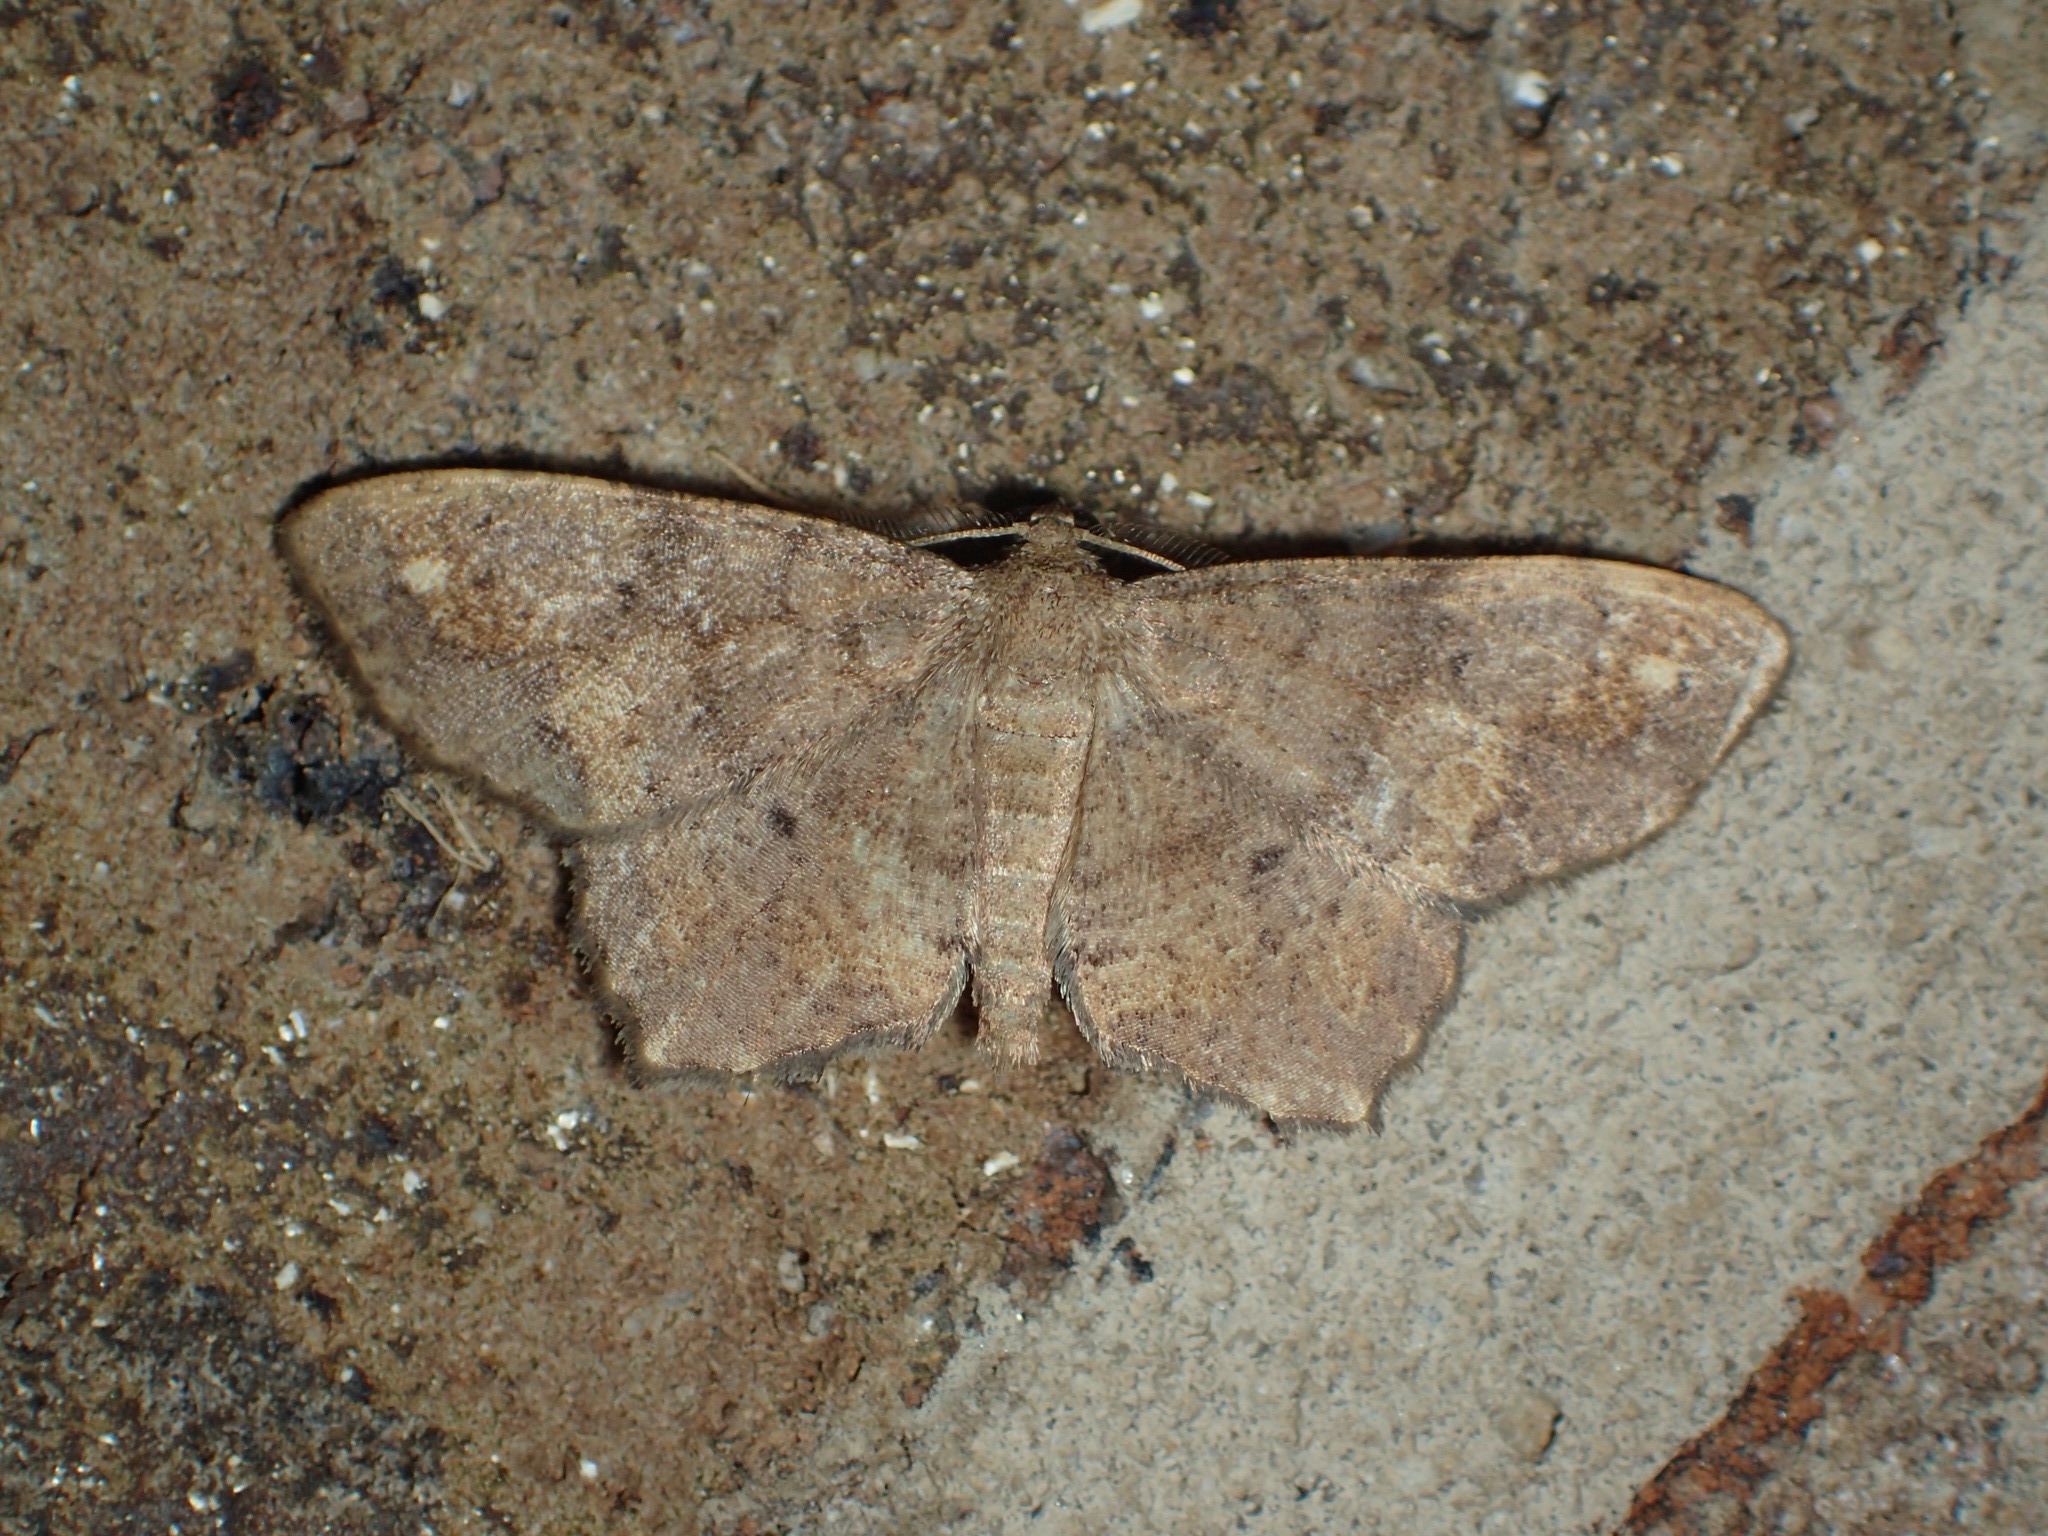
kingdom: Animalia
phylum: Arthropoda
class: Insecta
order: Lepidoptera
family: Geometridae
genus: Hypagyrtis
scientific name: Hypagyrtis esther
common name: Esther moth
